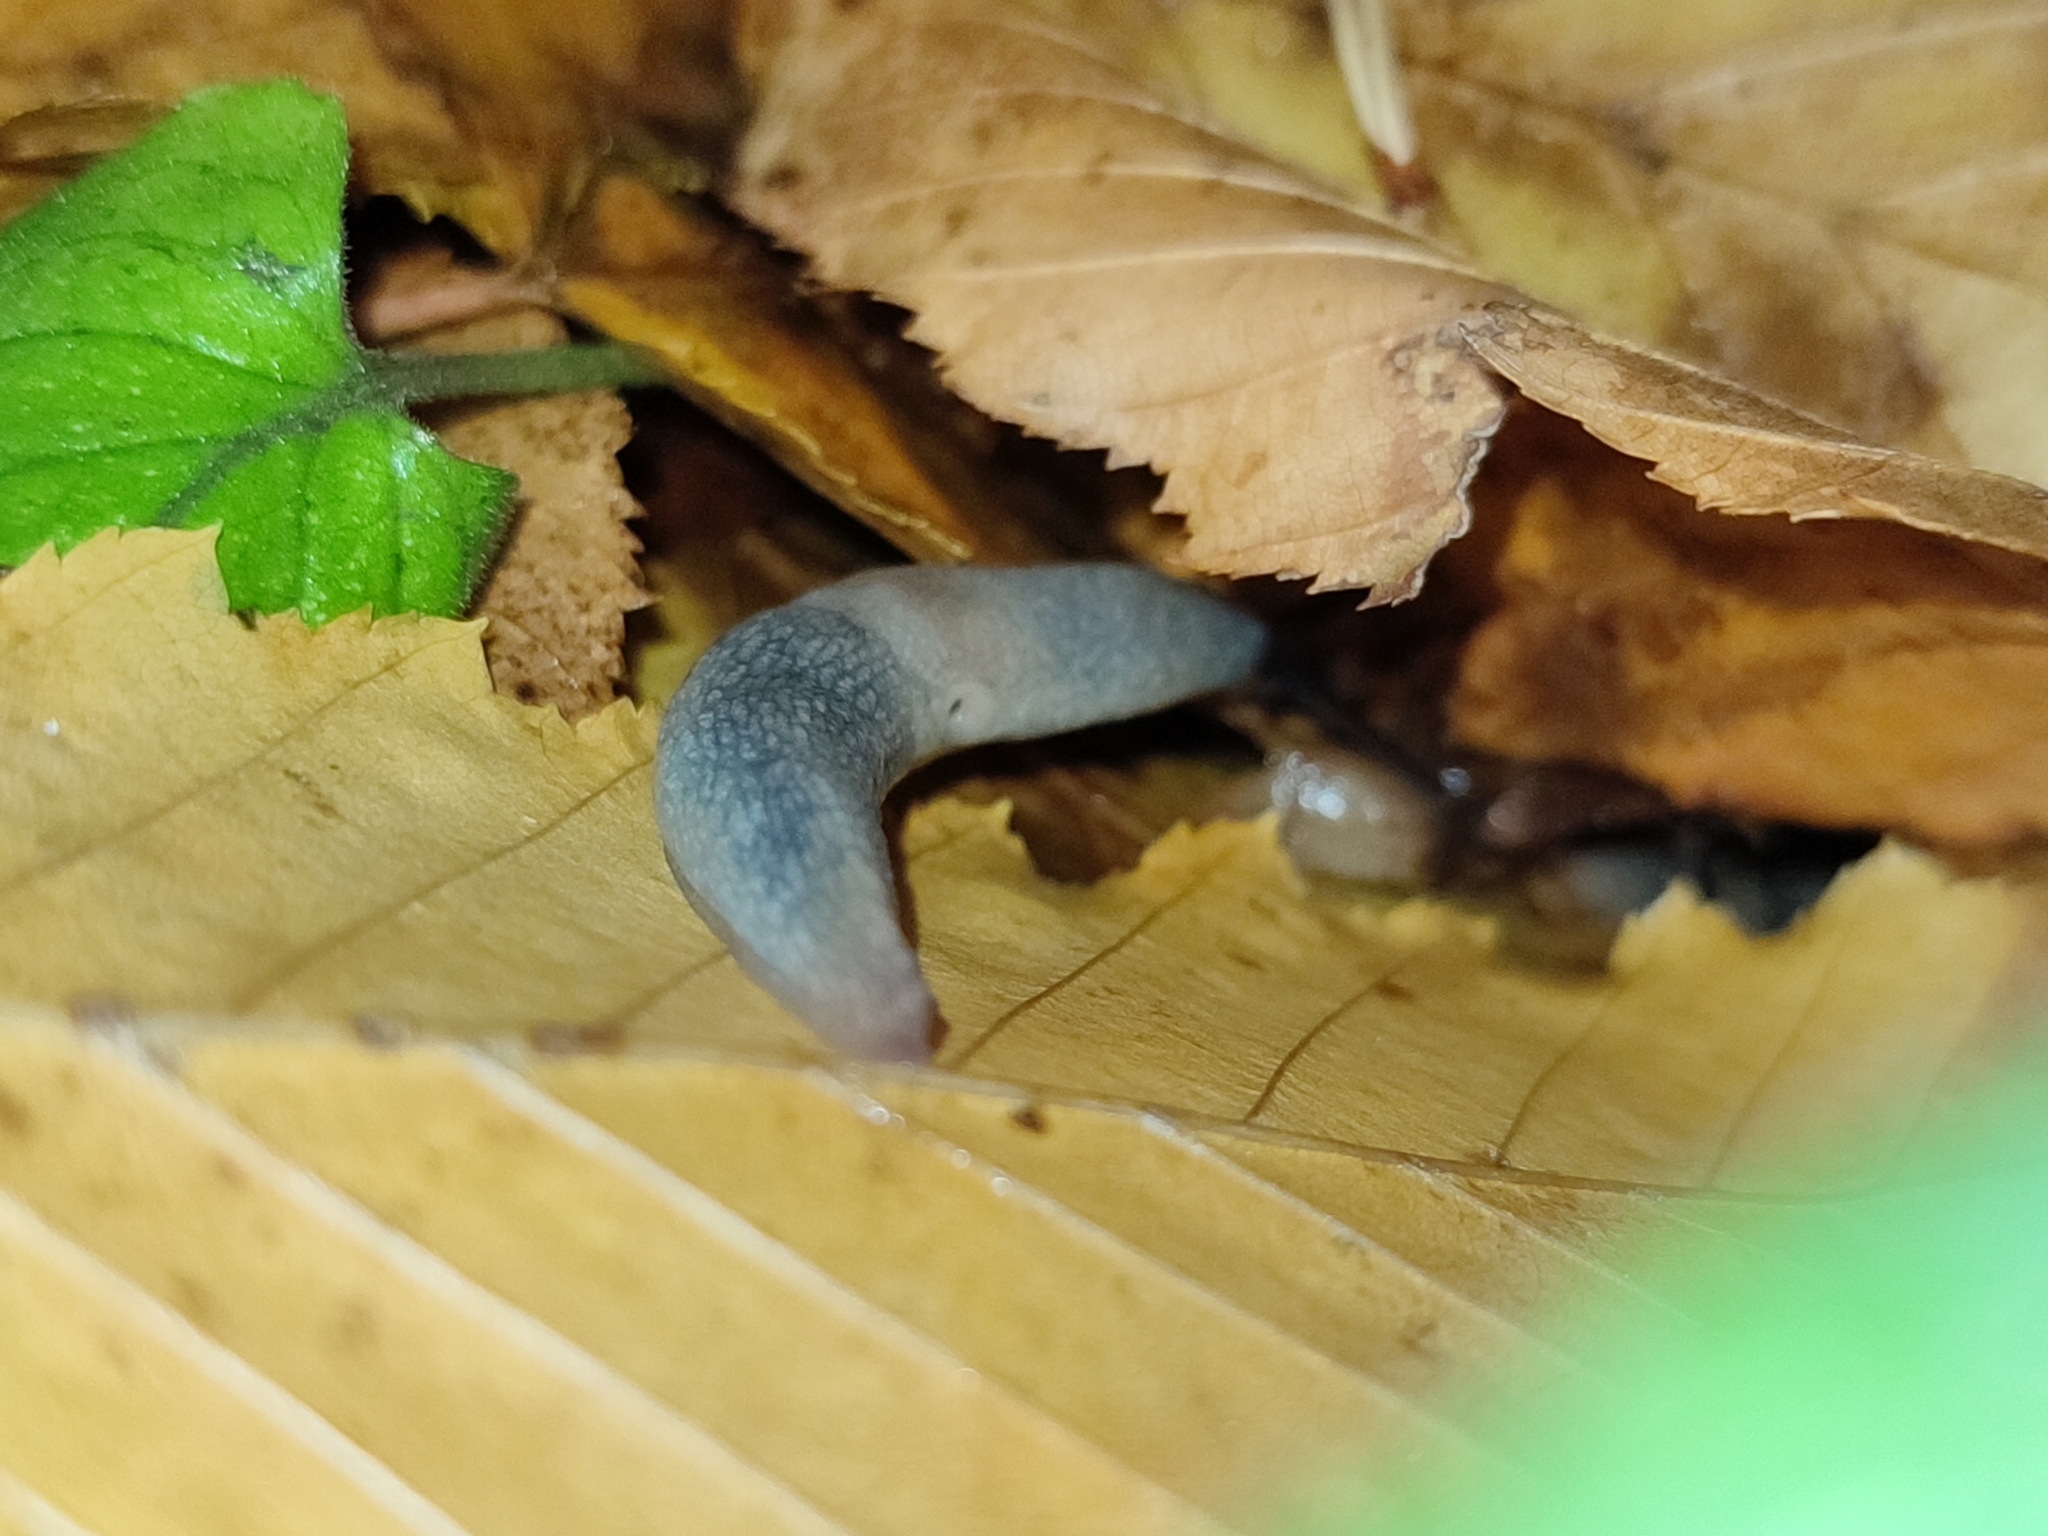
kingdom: Animalia
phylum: Mollusca
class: Gastropoda
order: Stylommatophora
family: Agriolimacidae
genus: Krynickillus
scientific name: Krynickillus melanocephalus
